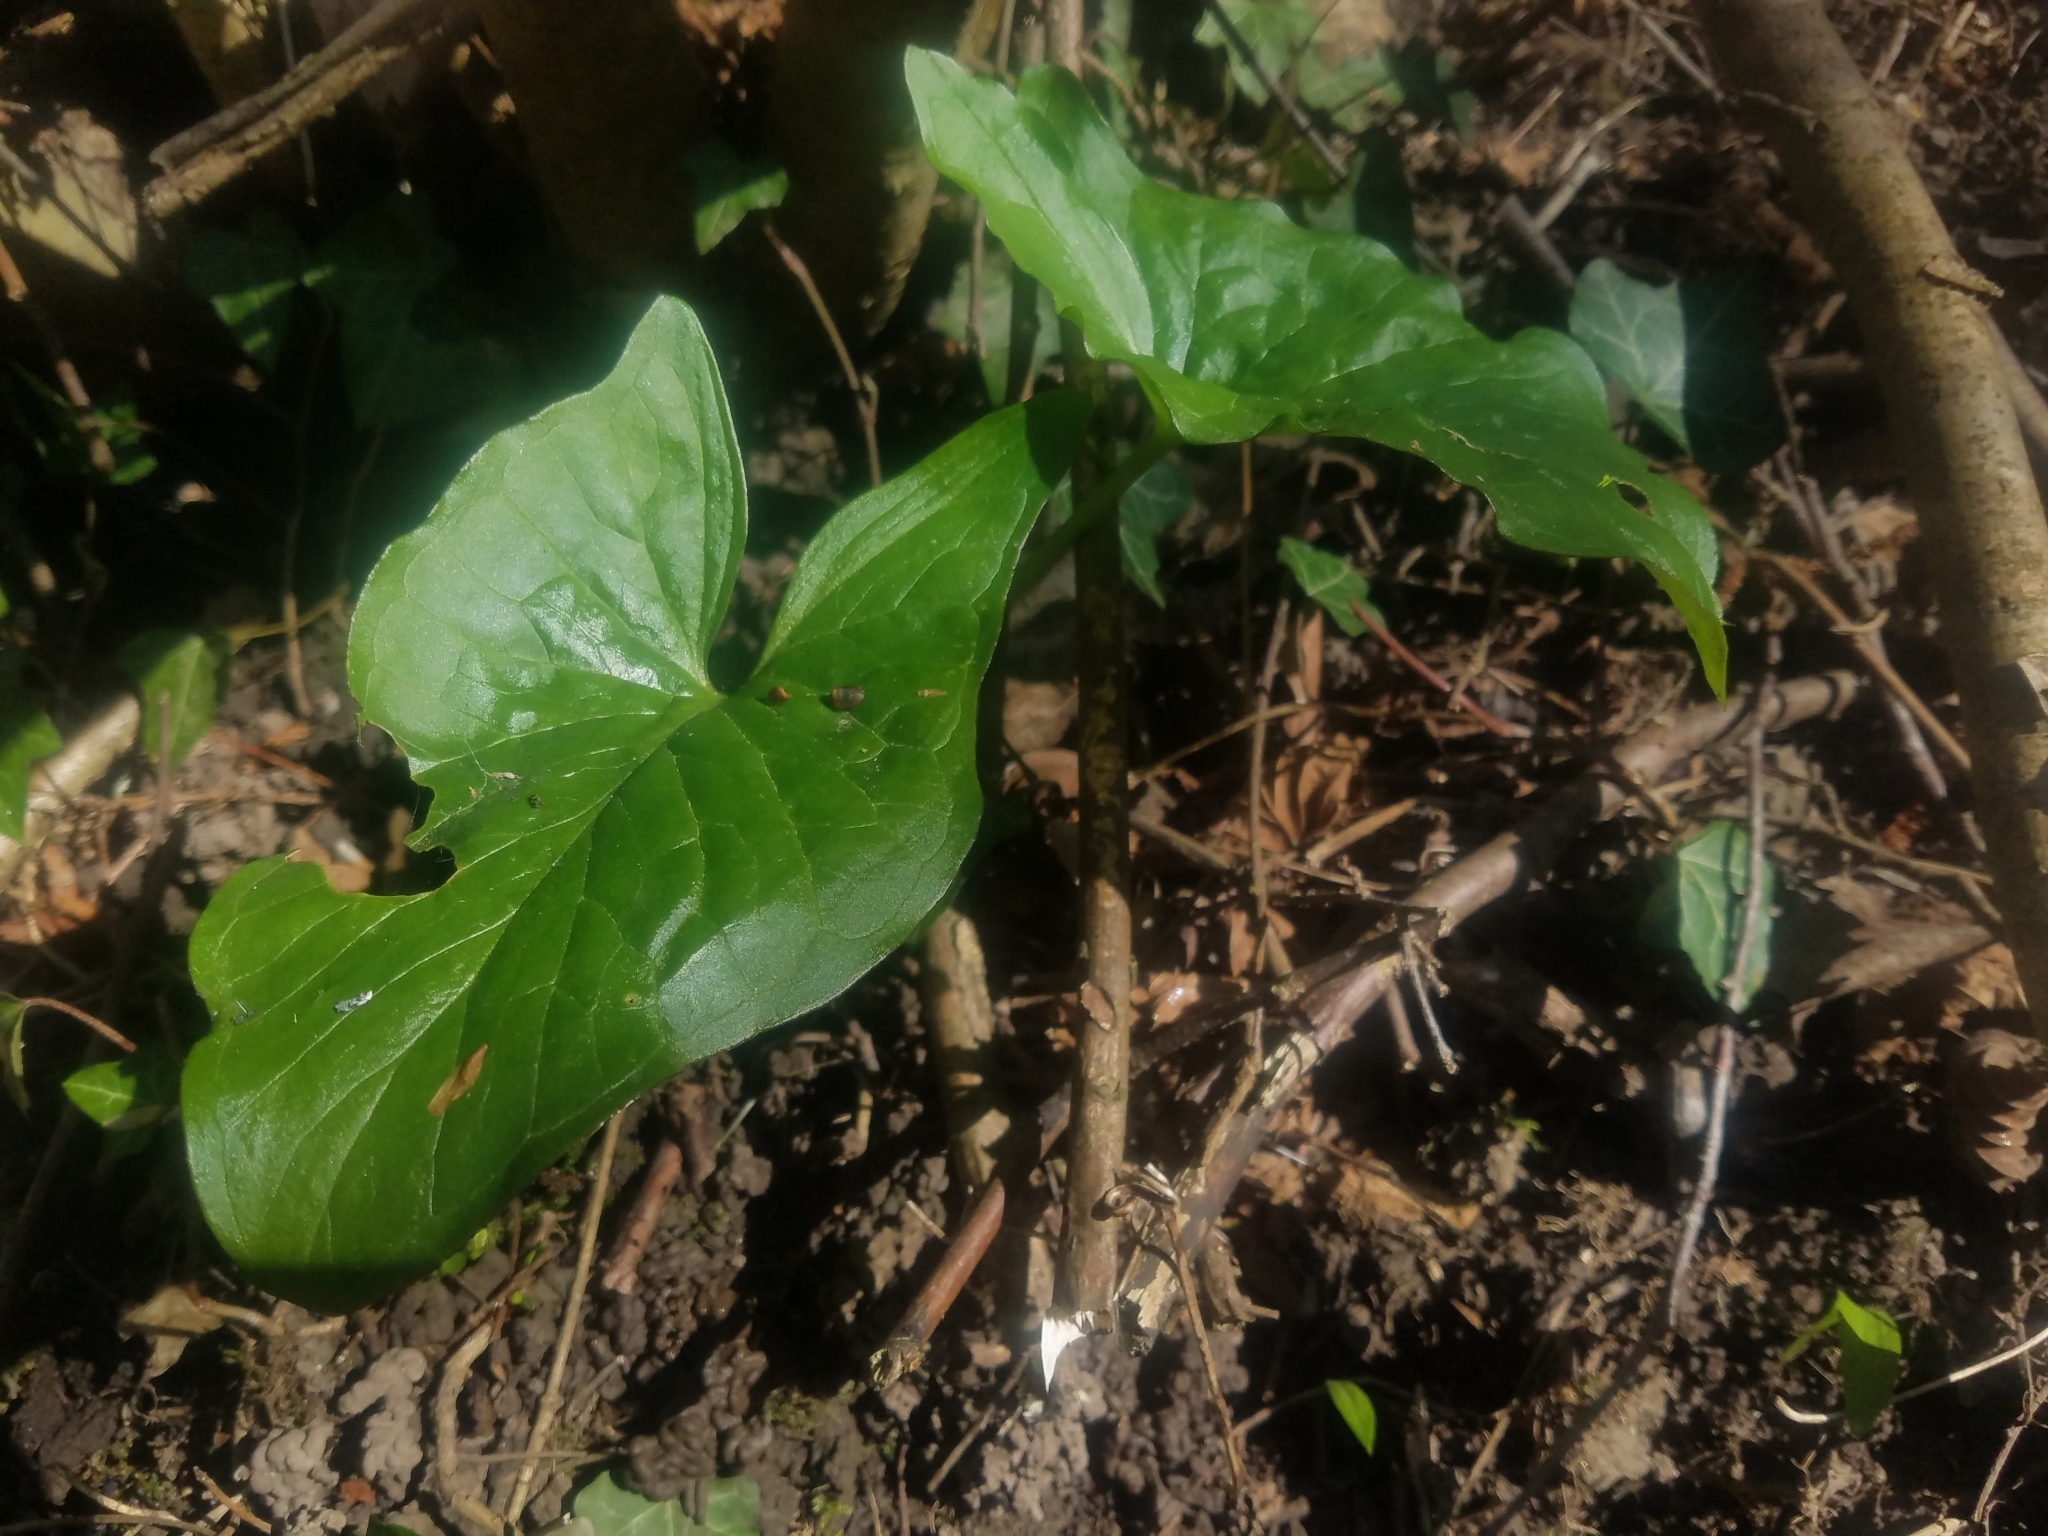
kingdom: Plantae
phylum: Tracheophyta
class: Liliopsida
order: Alismatales
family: Araceae
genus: Arum
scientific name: Arum maculatum
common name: Lords-and-ladies
